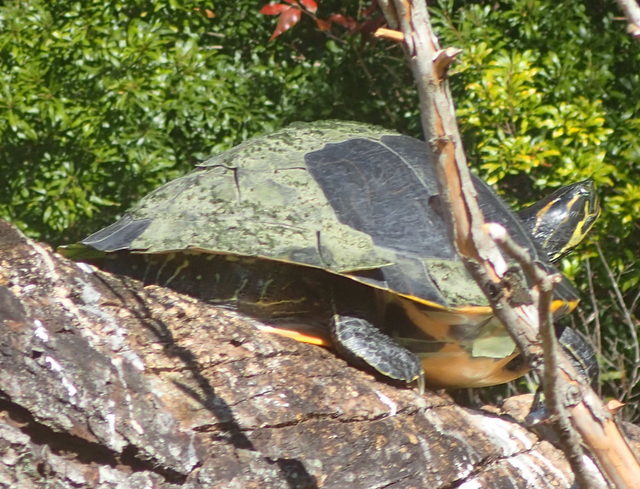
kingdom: Animalia
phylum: Chordata
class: Testudines
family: Emydidae
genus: Pseudemys
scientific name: Pseudemys peninsularis
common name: Peninsula cooter
